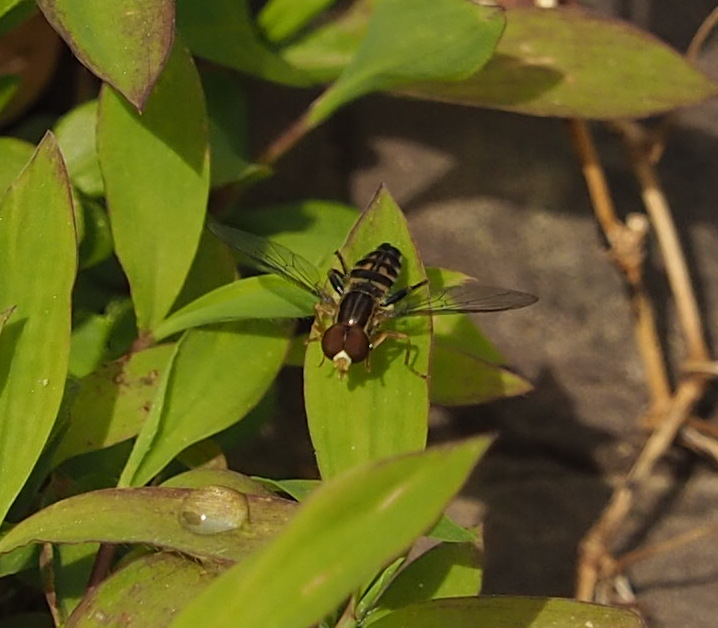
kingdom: Animalia
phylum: Arthropoda
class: Insecta
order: Diptera
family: Syrphidae
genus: Toxomerus
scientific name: Toxomerus geminatus
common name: Eastern calligrapher
